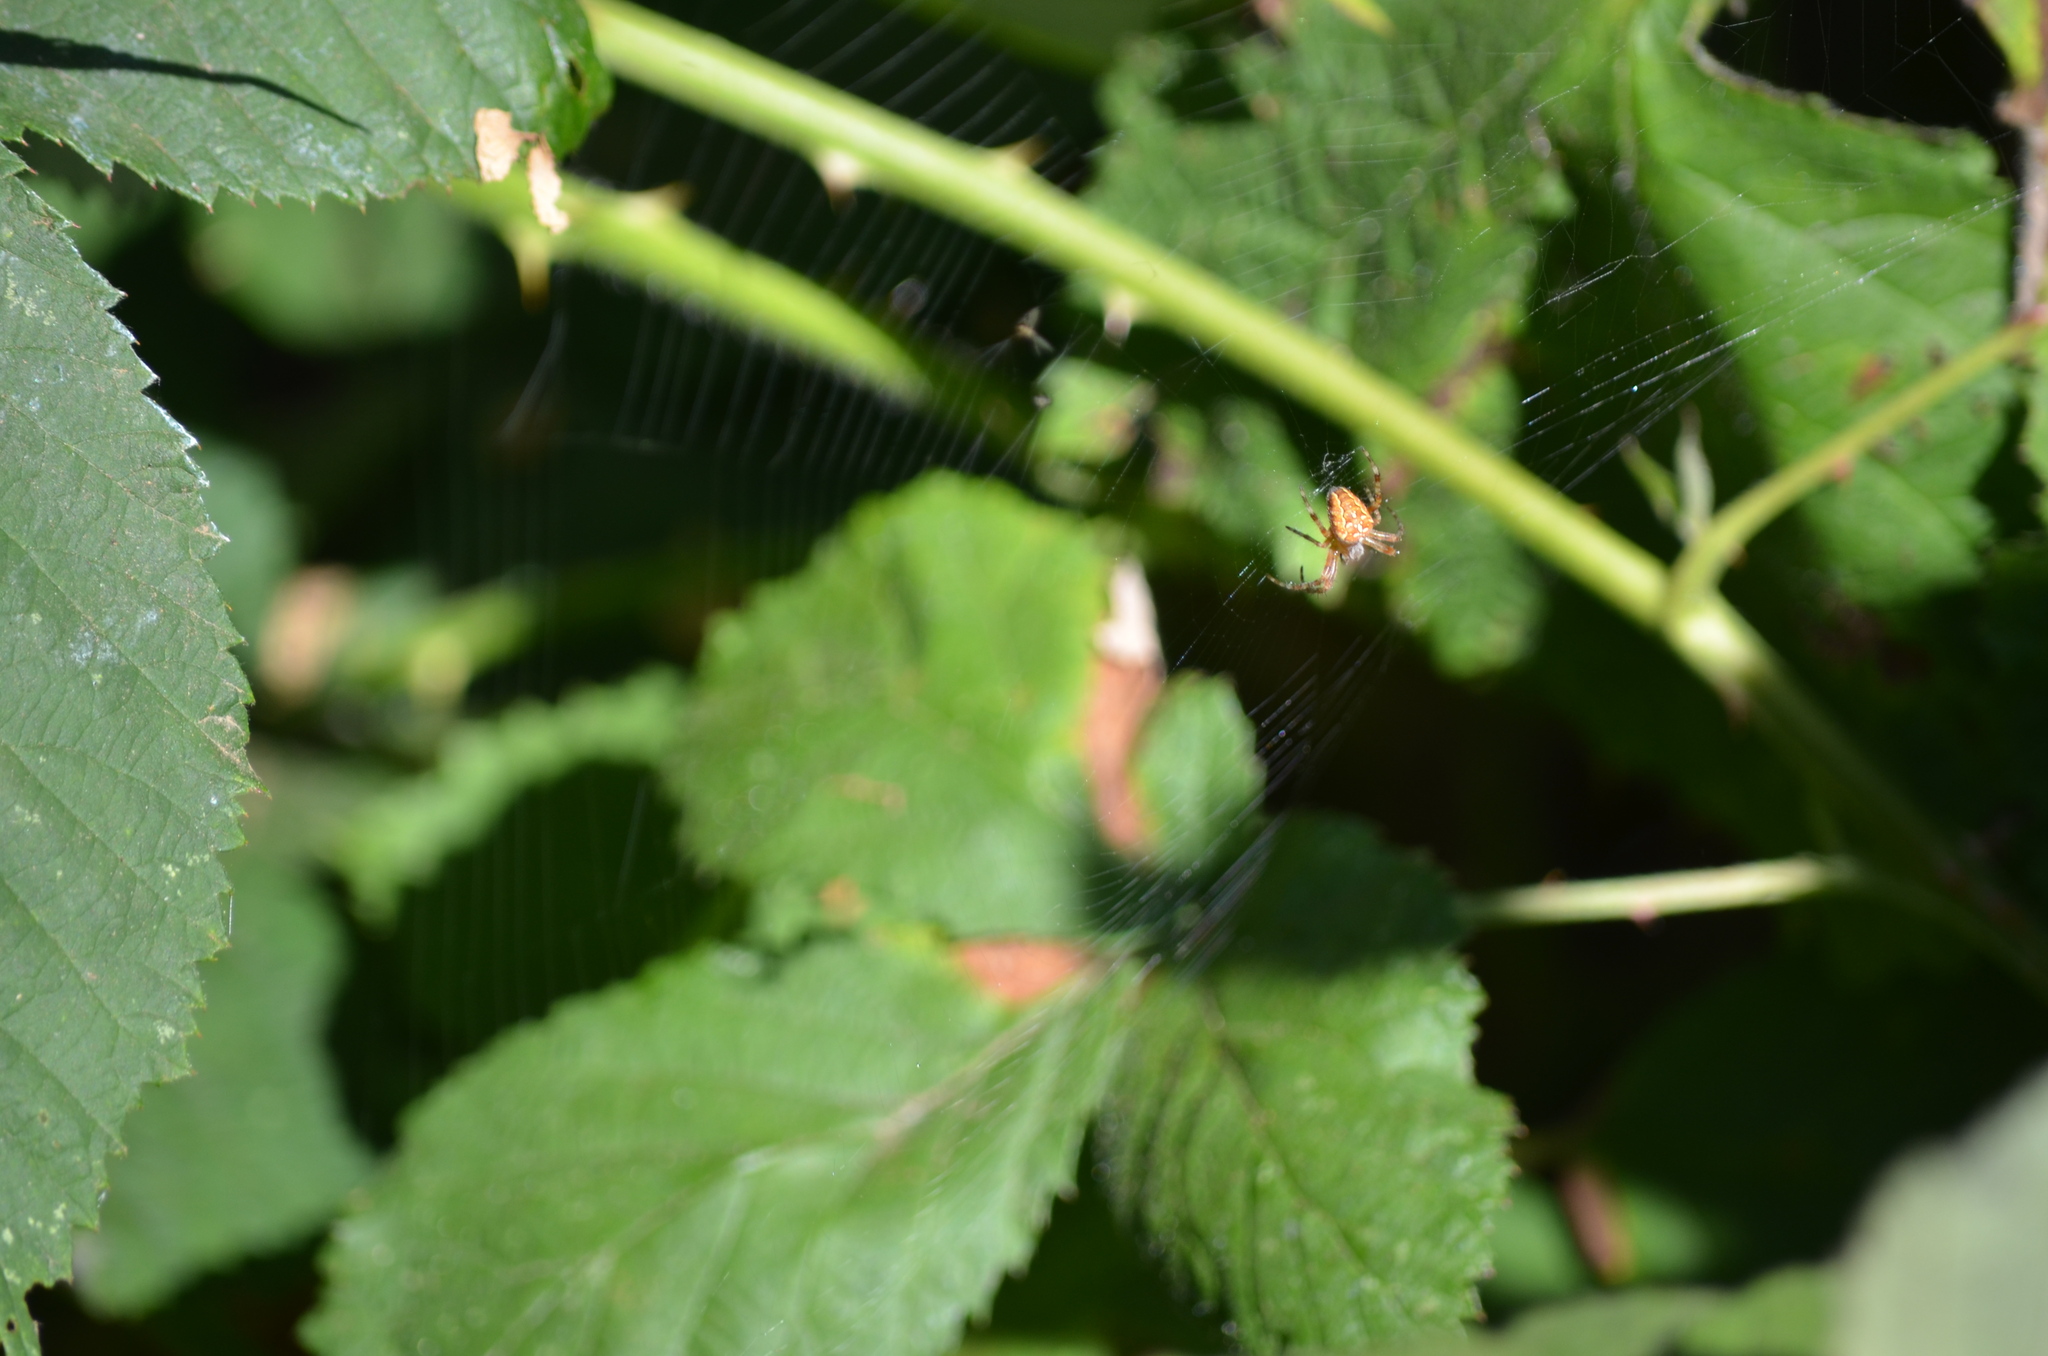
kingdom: Animalia
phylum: Arthropoda
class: Arachnida
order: Araneae
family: Araneidae
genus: Araneus
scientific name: Araneus diadematus
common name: Cross orbweaver
